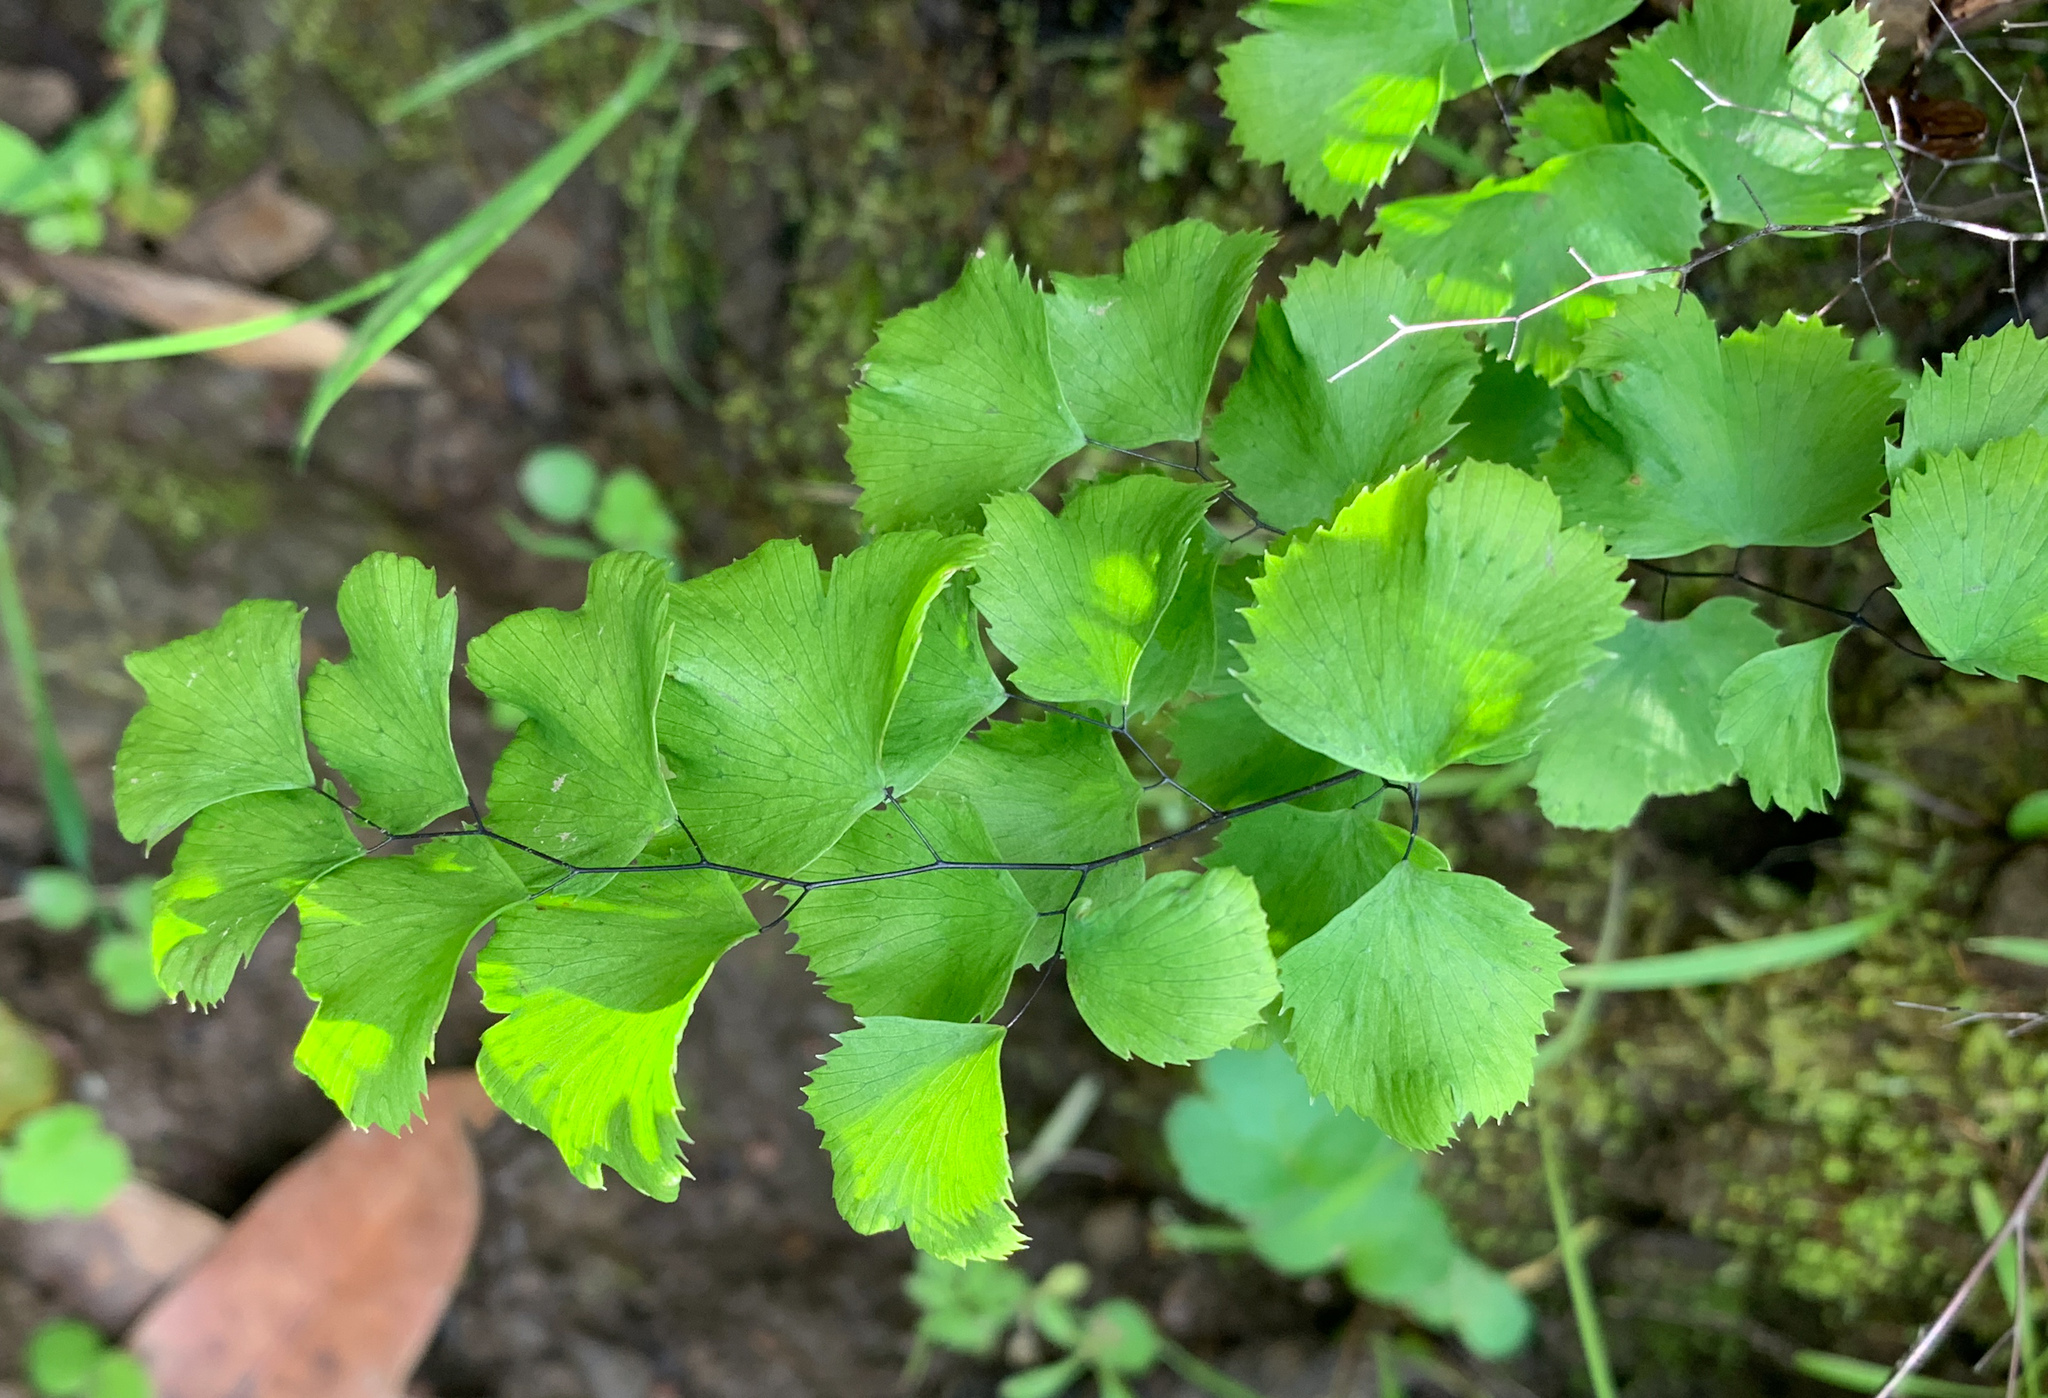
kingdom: Plantae
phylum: Tracheophyta
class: Polypodiopsida
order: Polypodiales
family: Pteridaceae
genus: Adiantum
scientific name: Adiantum jordanii
